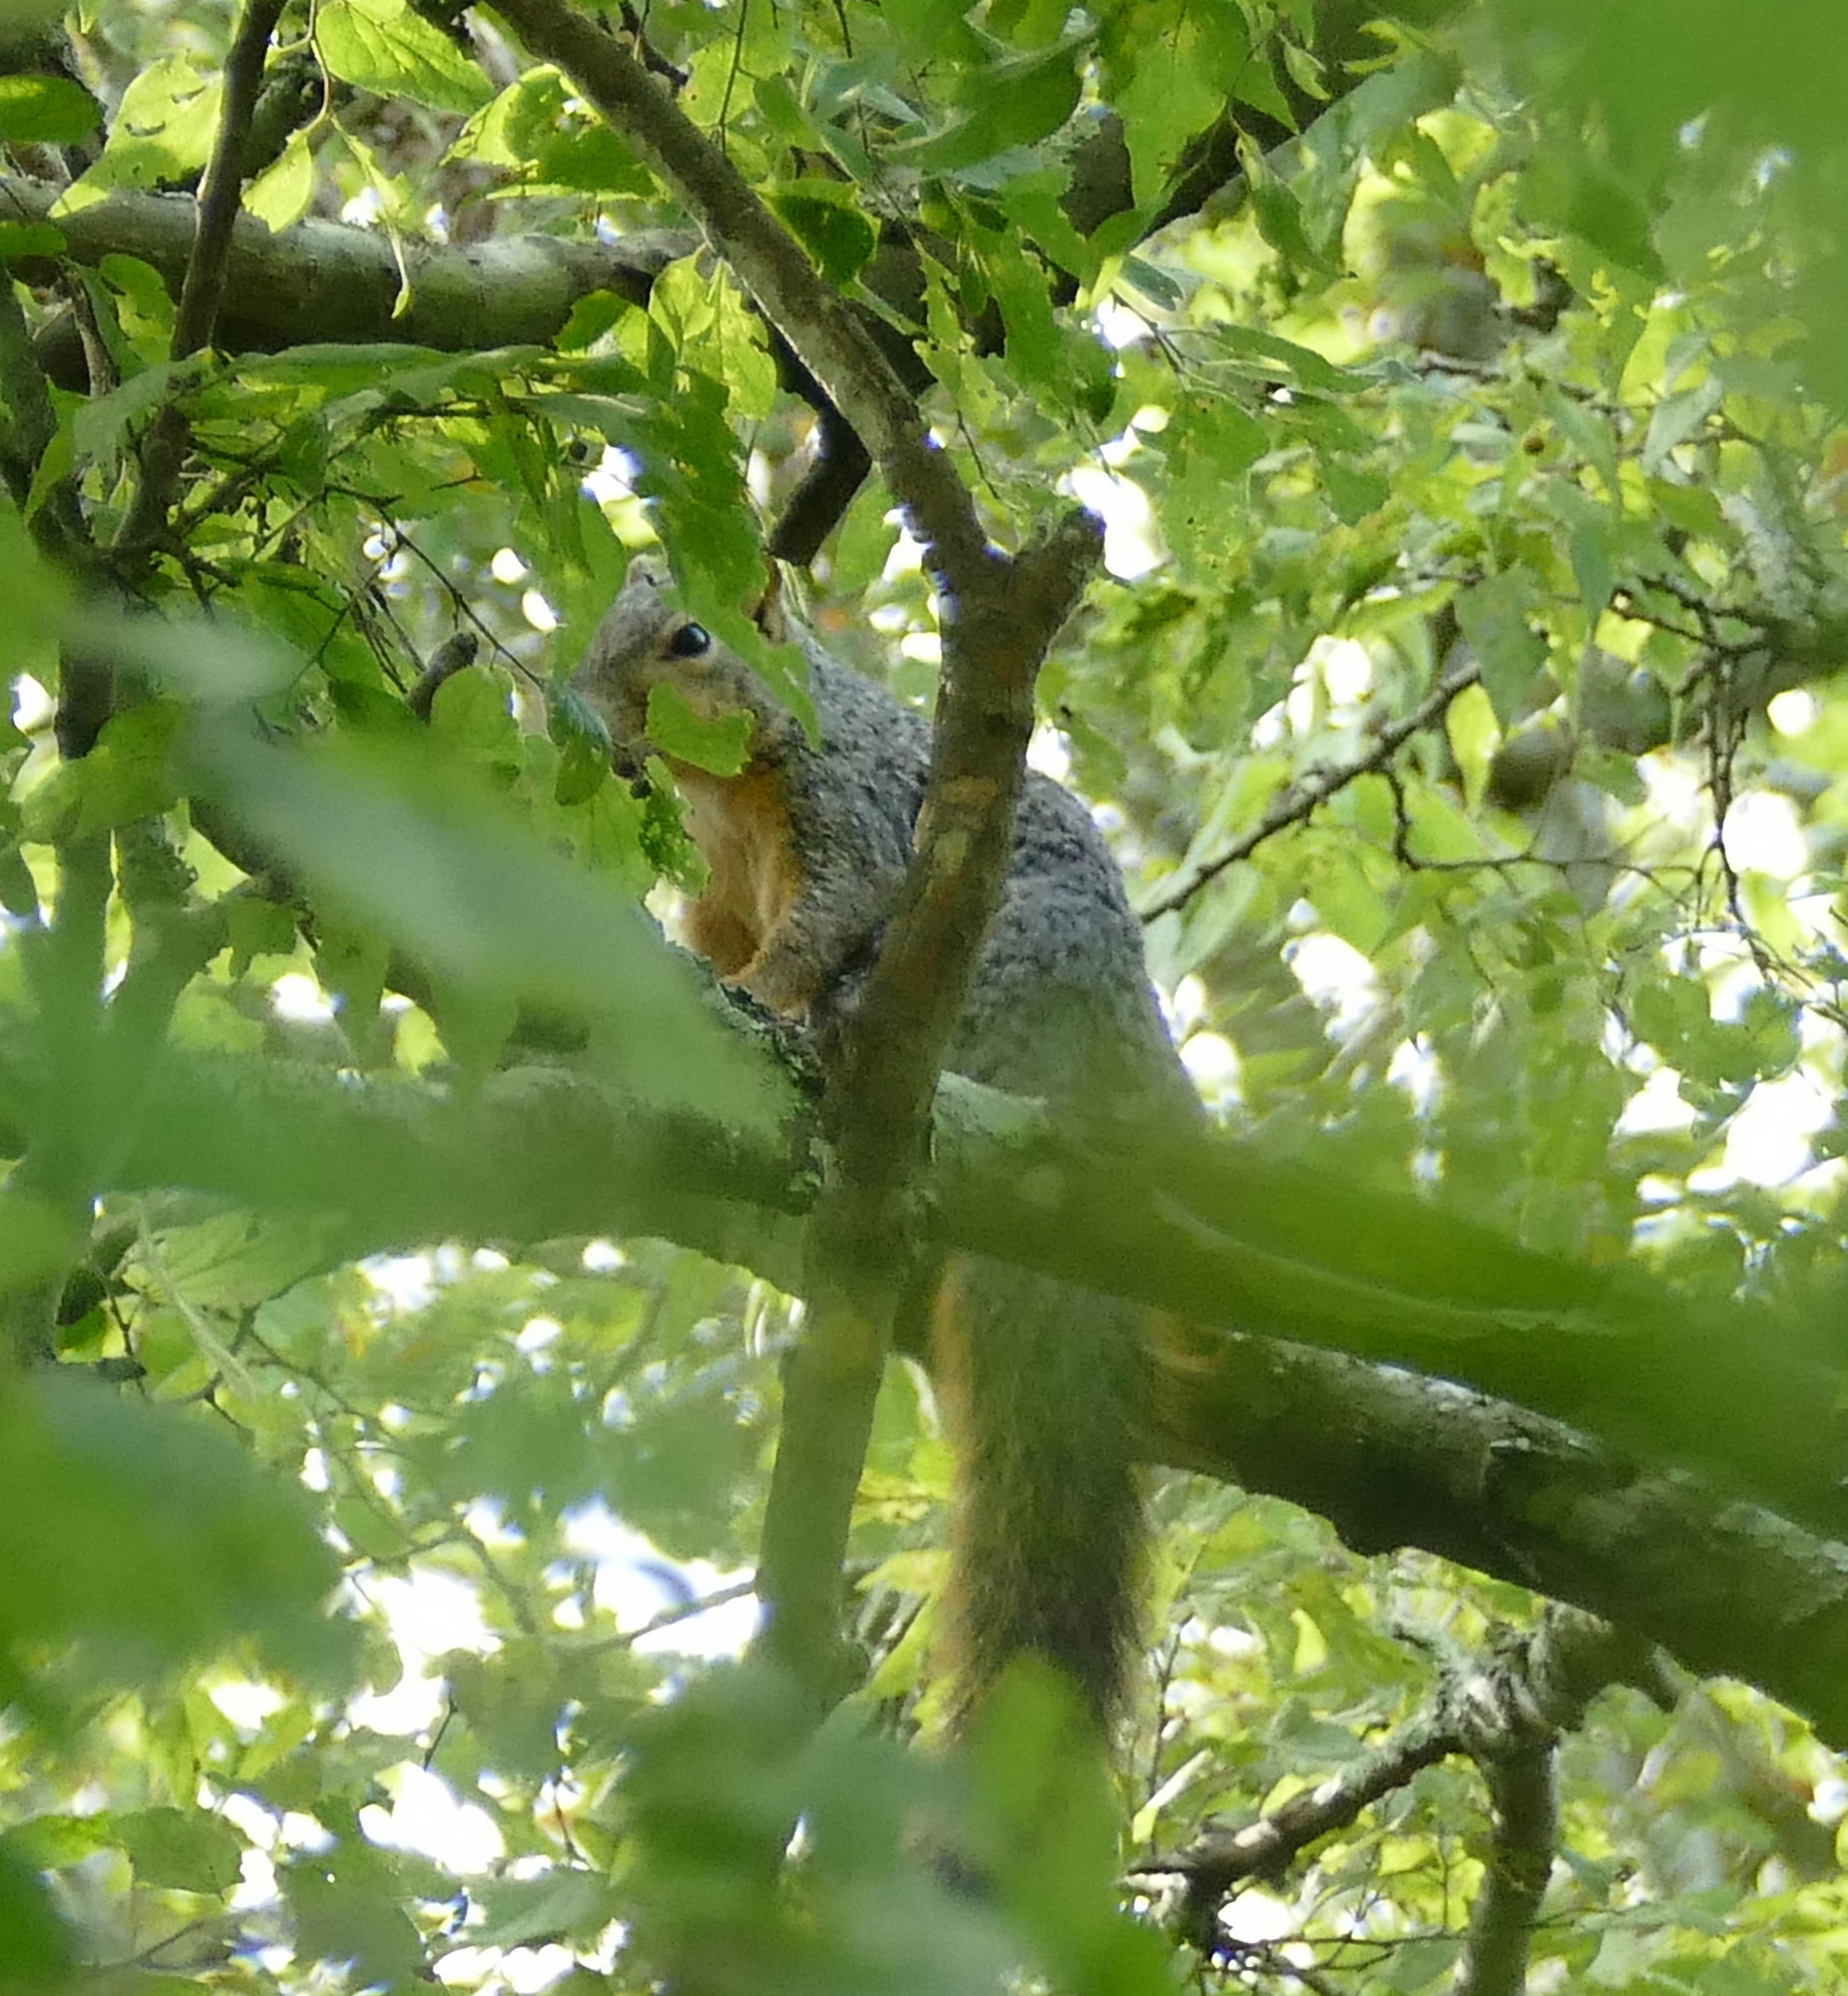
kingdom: Animalia
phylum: Chordata
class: Mammalia
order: Rodentia
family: Sciuridae
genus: Sciurus
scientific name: Sciurus niger
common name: Fox squirrel
